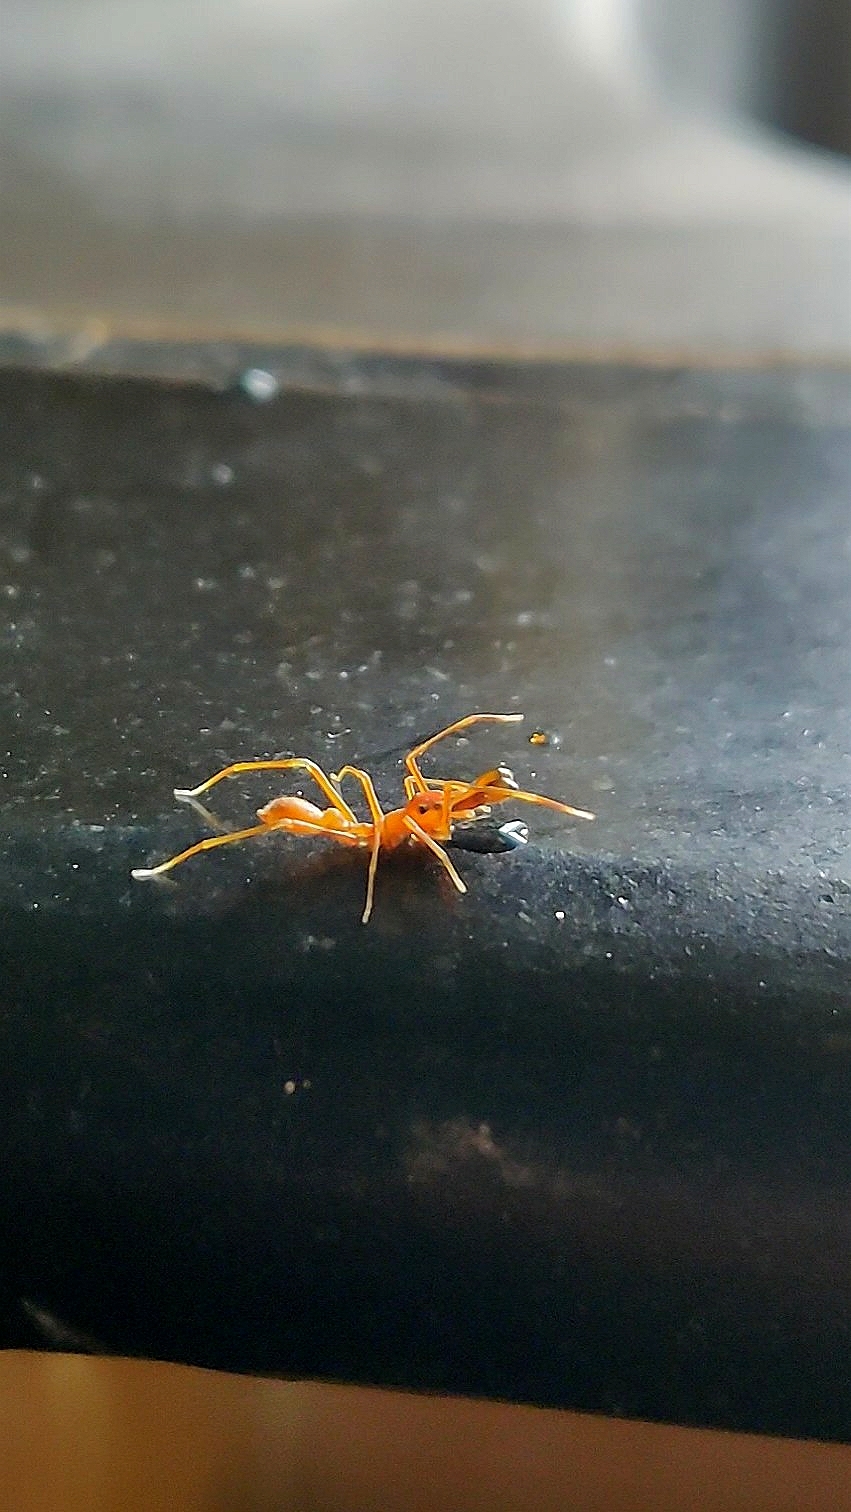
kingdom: Animalia
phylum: Arthropoda
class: Arachnida
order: Araneae
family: Salticidae
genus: Myrmaplata
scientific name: Myrmaplata plataleoides
